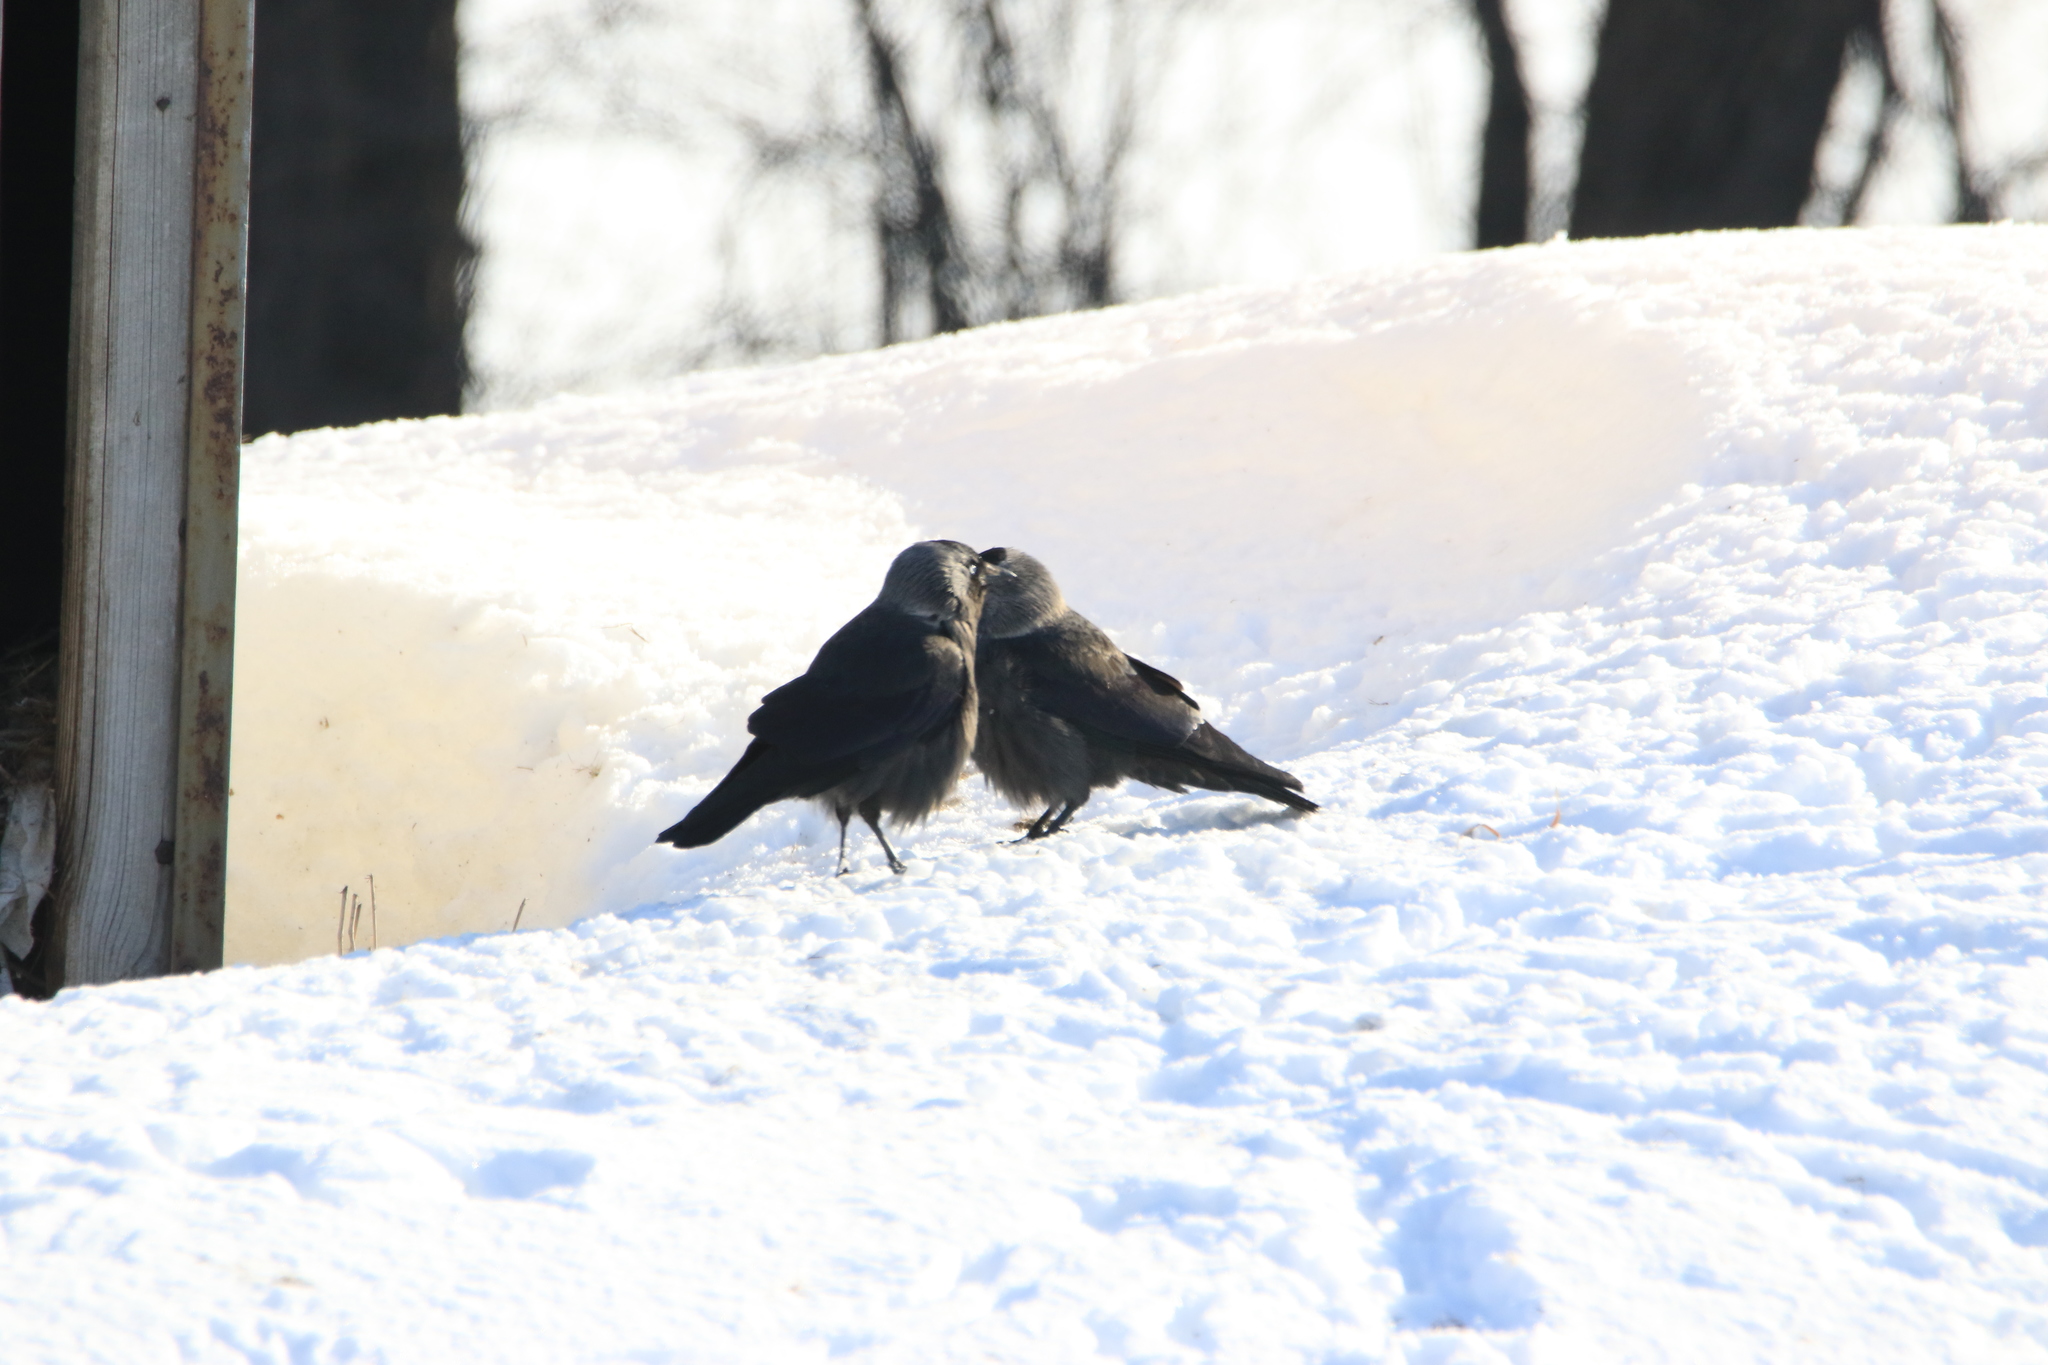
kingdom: Animalia
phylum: Chordata
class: Aves
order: Passeriformes
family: Corvidae
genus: Coloeus
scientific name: Coloeus monedula
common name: Western jackdaw
